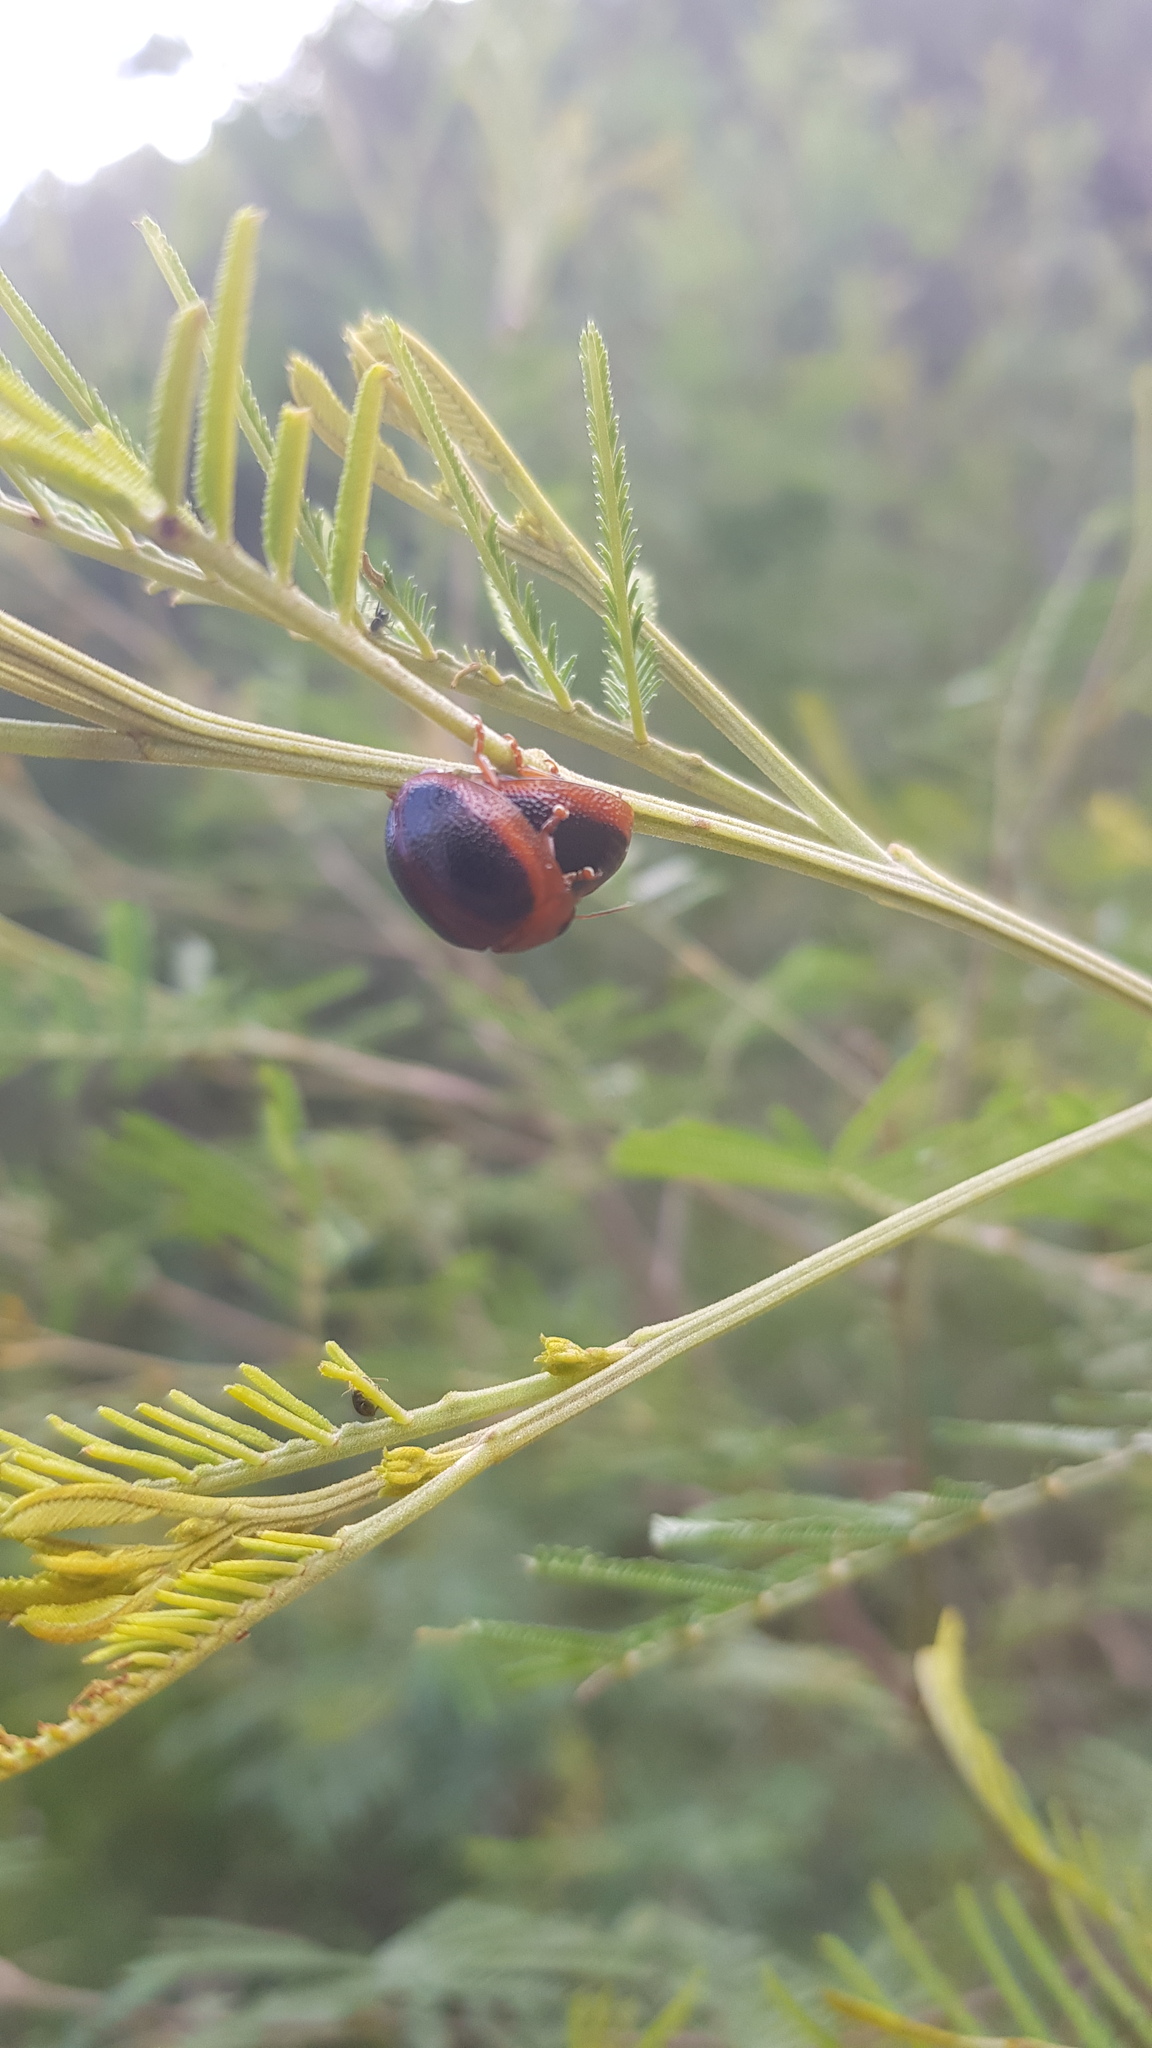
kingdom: Animalia
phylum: Arthropoda
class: Insecta
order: Coleoptera
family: Chrysomelidae
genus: Dicranosterna
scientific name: Dicranosterna
